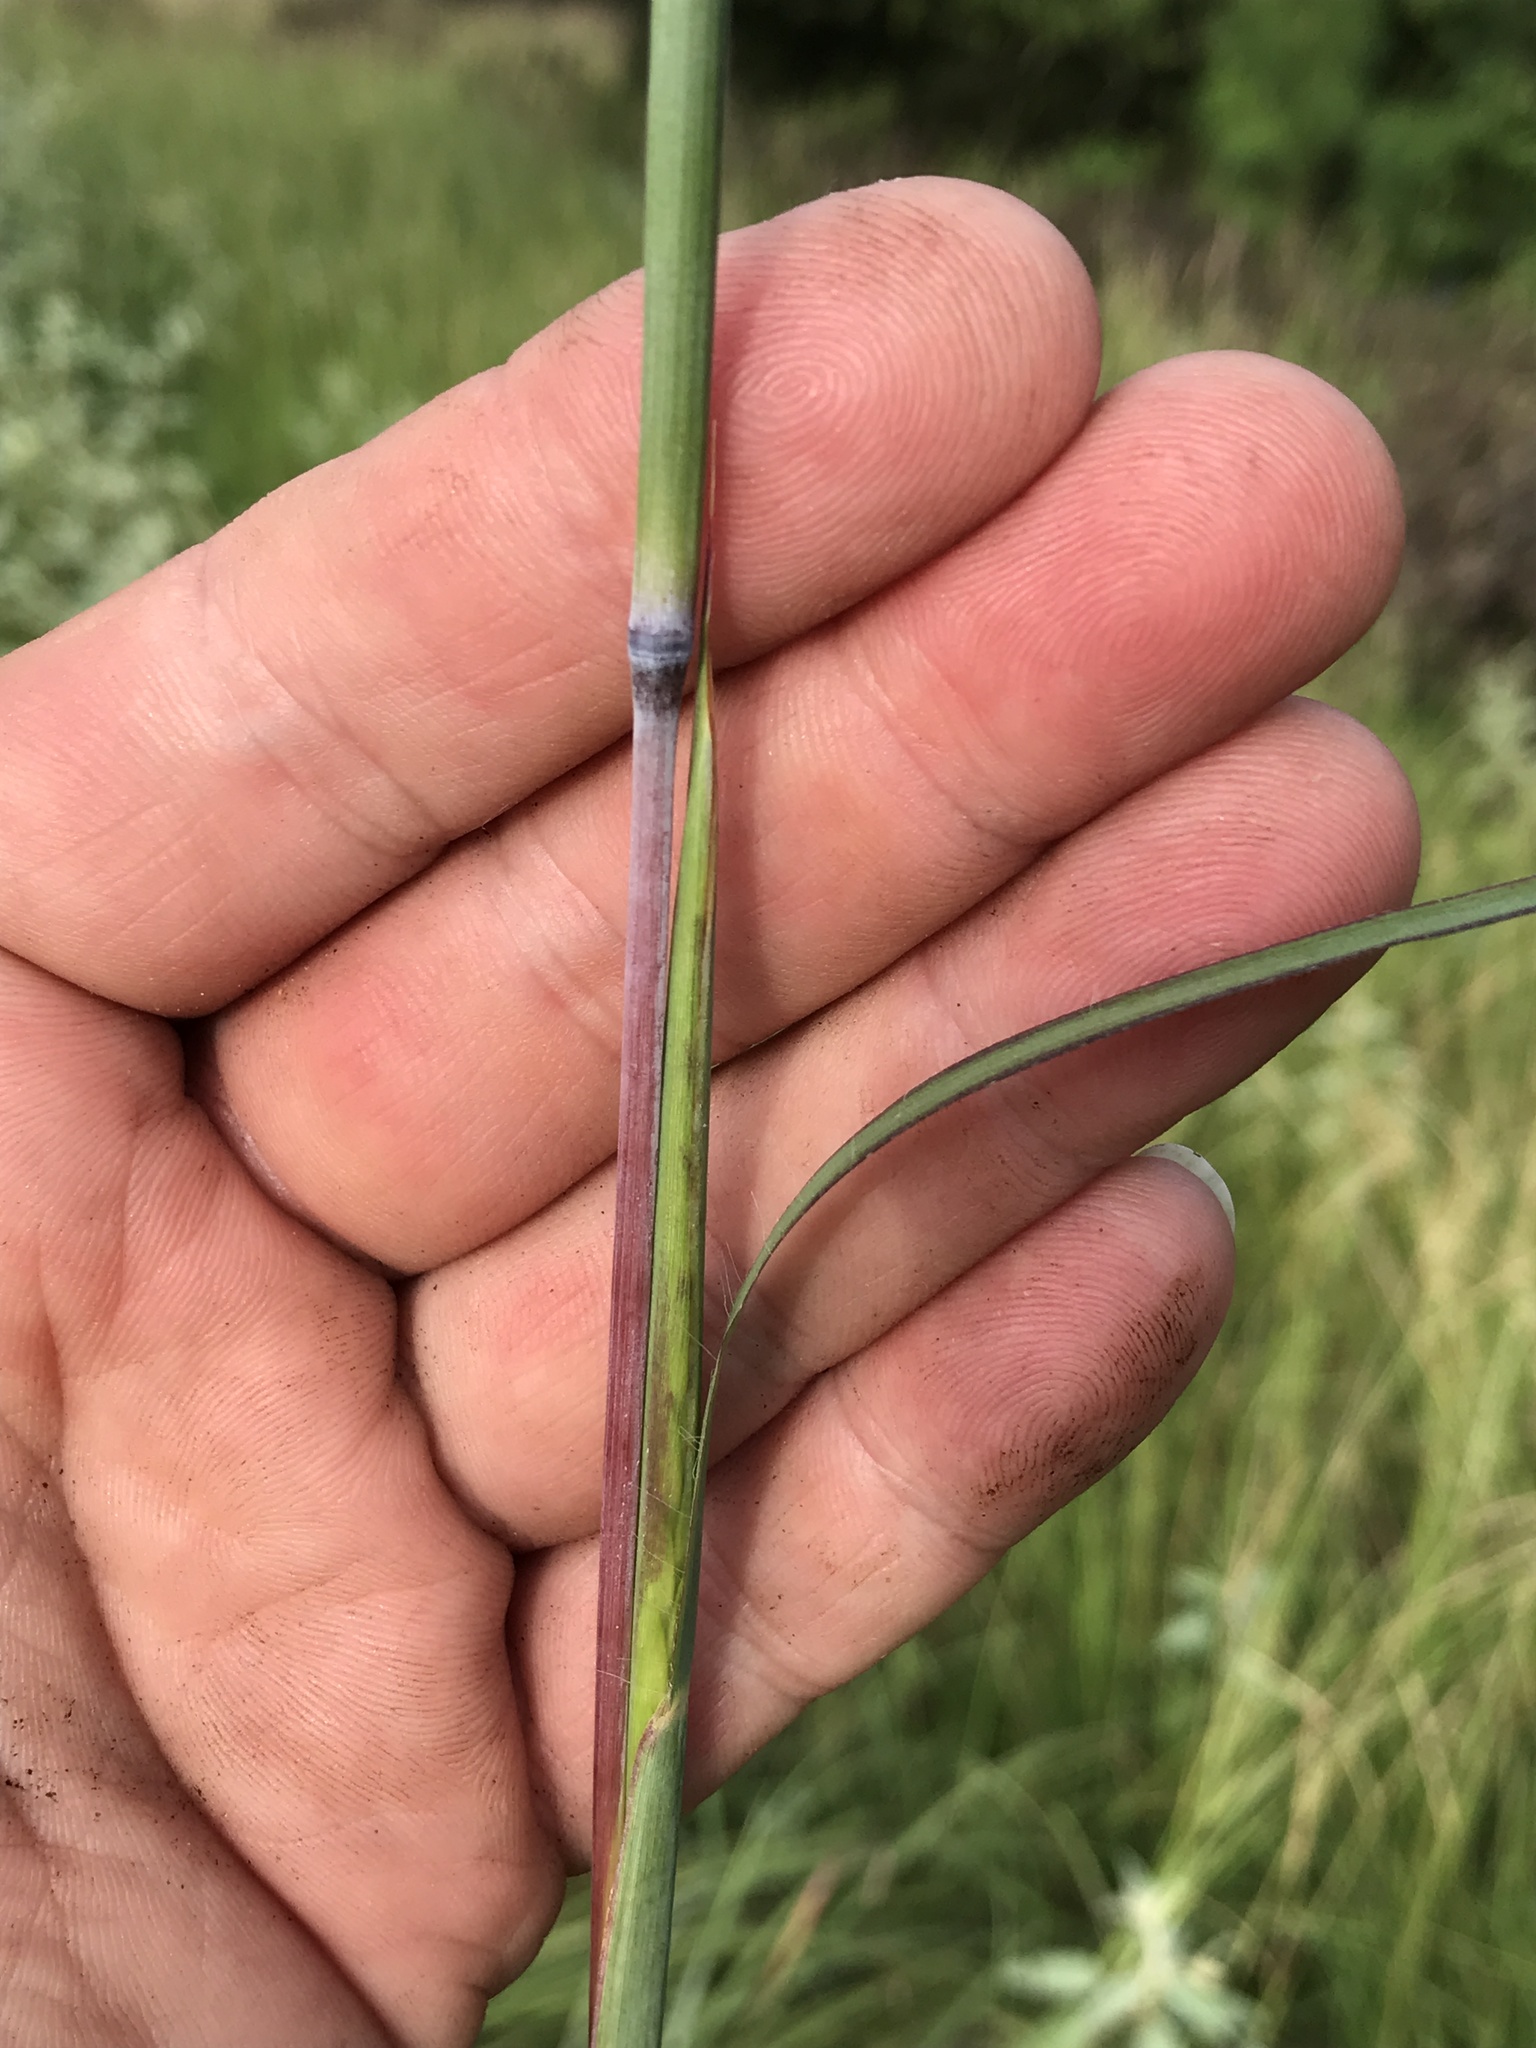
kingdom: Plantae
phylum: Tracheophyta
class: Liliopsida
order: Poales
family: Poaceae
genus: Andropogon
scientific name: Andropogon gerardi
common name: Big bluestem
